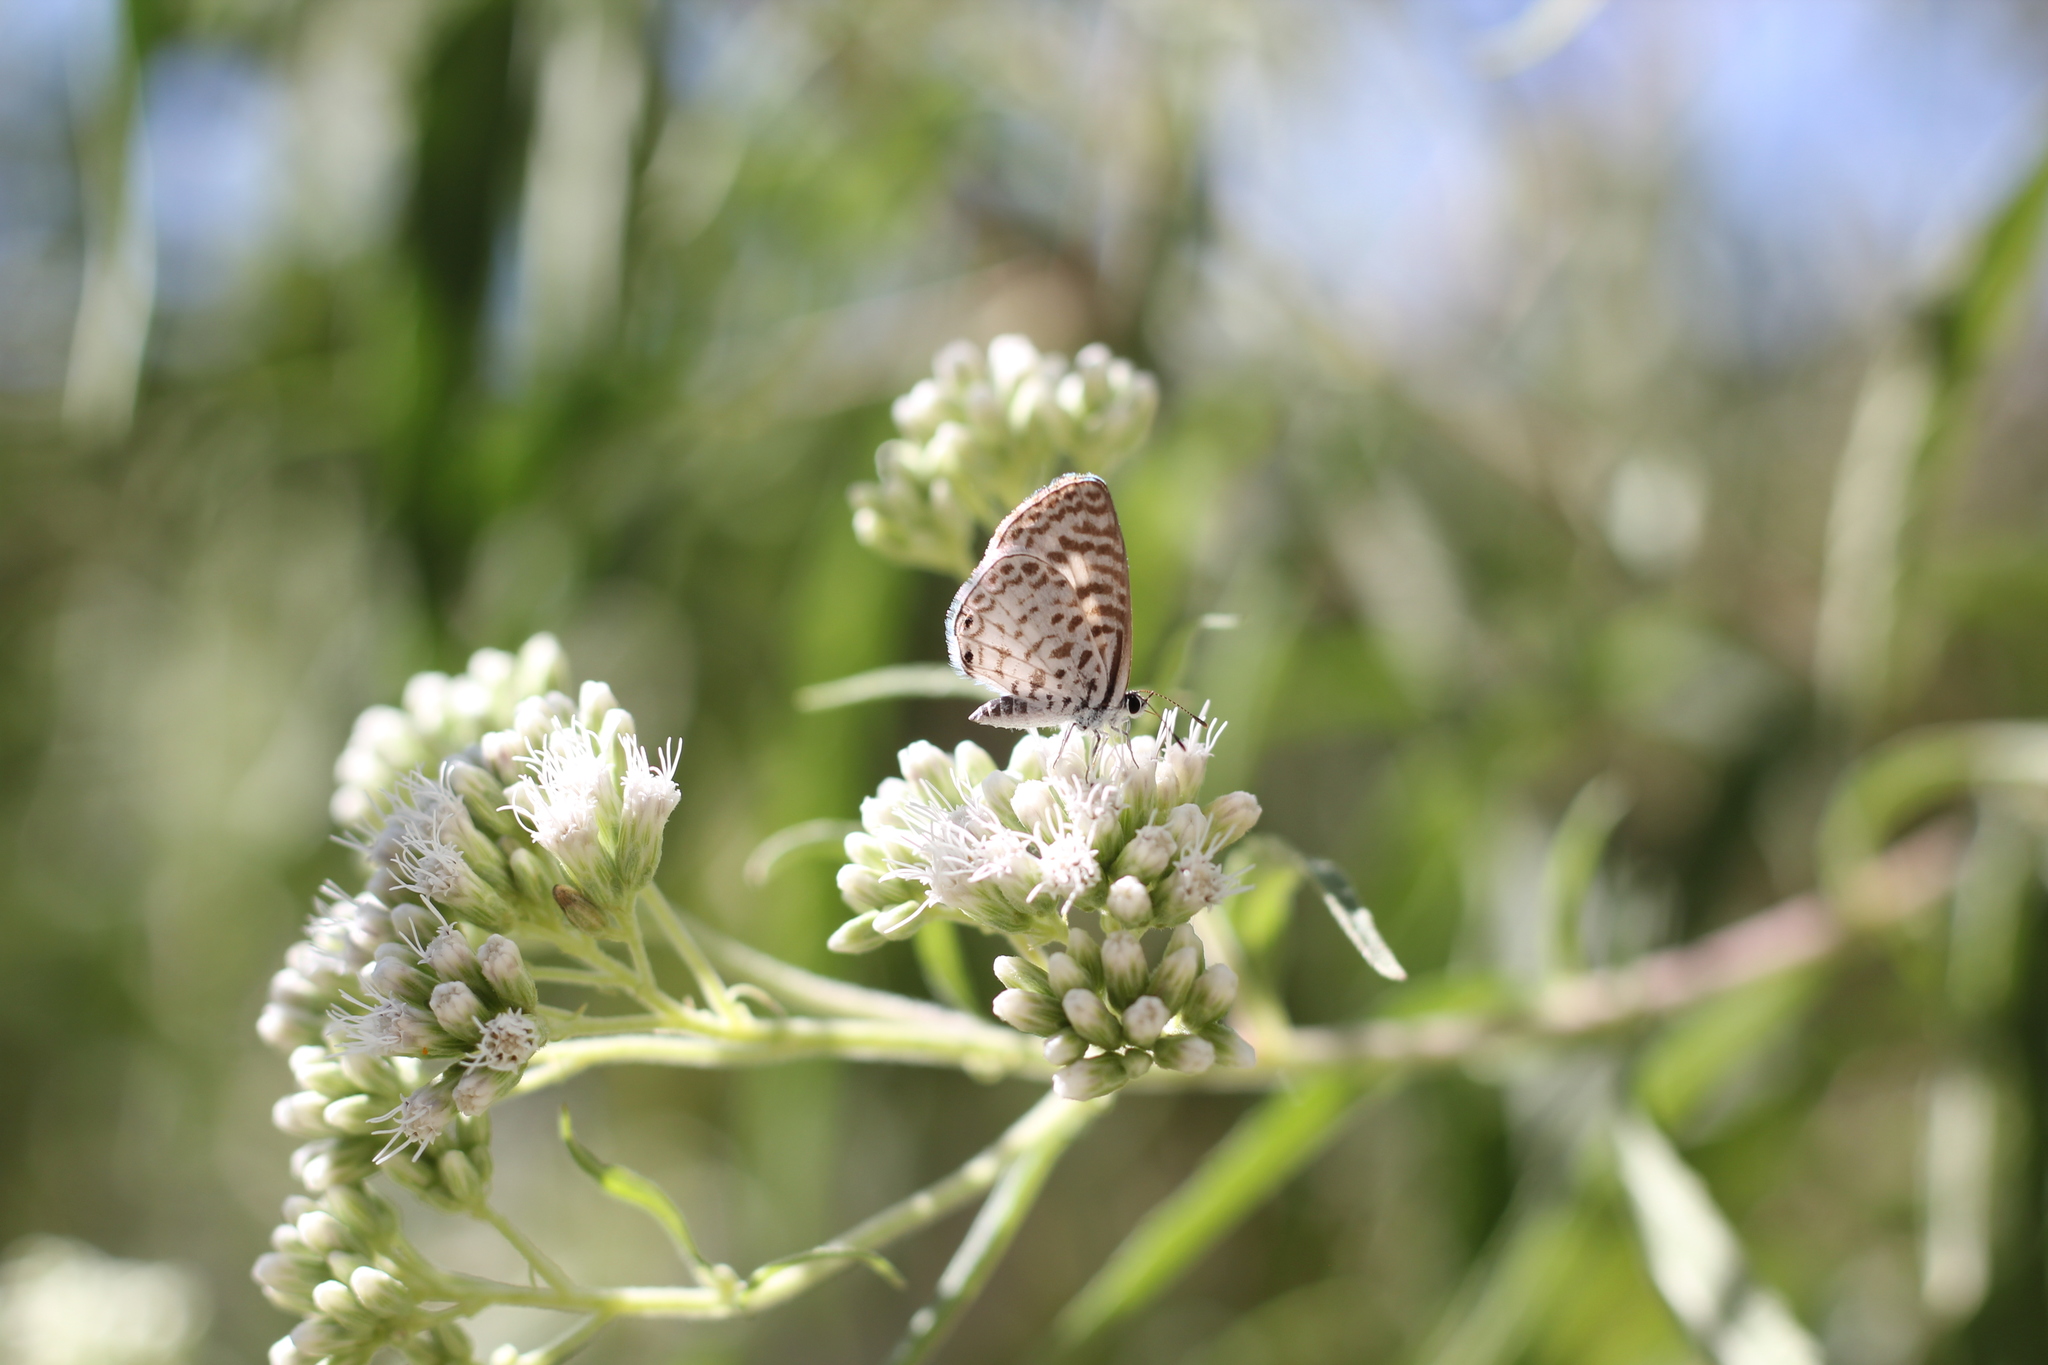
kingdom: Animalia
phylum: Arthropoda
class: Insecta
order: Lepidoptera
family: Lycaenidae
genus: Leptotes
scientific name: Leptotes cassius
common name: Cassius blue
